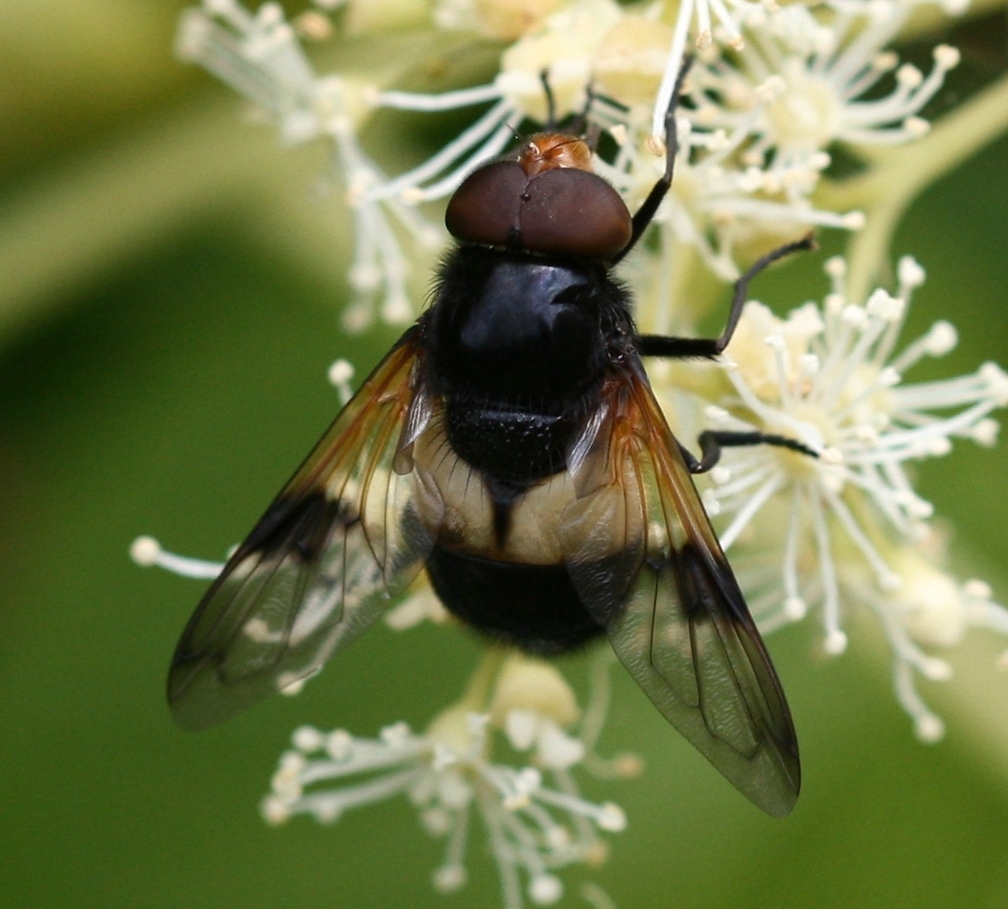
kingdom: Animalia
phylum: Arthropoda
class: Insecta
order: Diptera
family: Syrphidae
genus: Volucella
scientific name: Volucella pellucens
